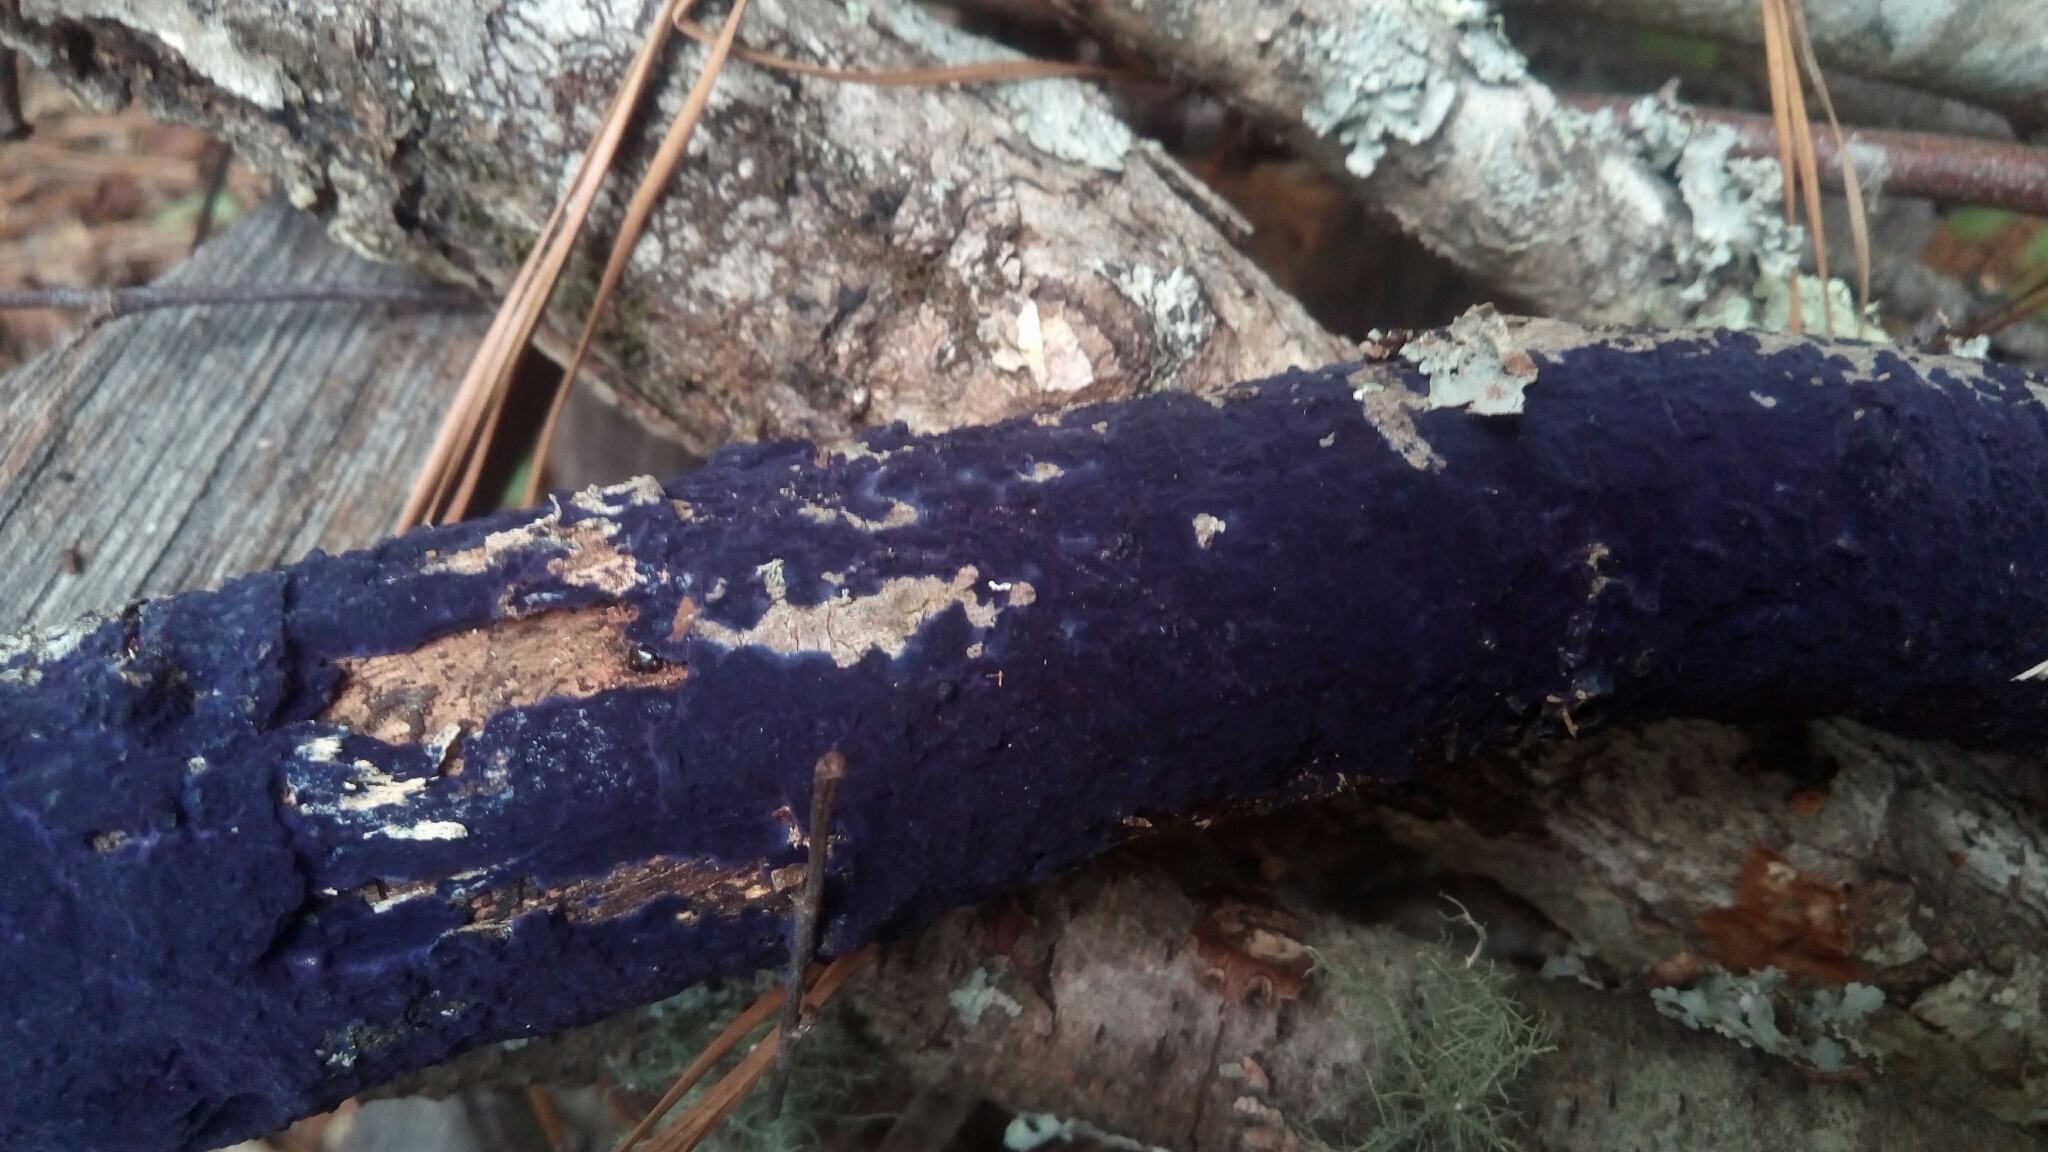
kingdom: Fungi
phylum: Basidiomycota
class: Agaricomycetes
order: Polyporales
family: Phanerochaetaceae
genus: Terana
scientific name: Terana coerulea
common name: Cobalt crust
